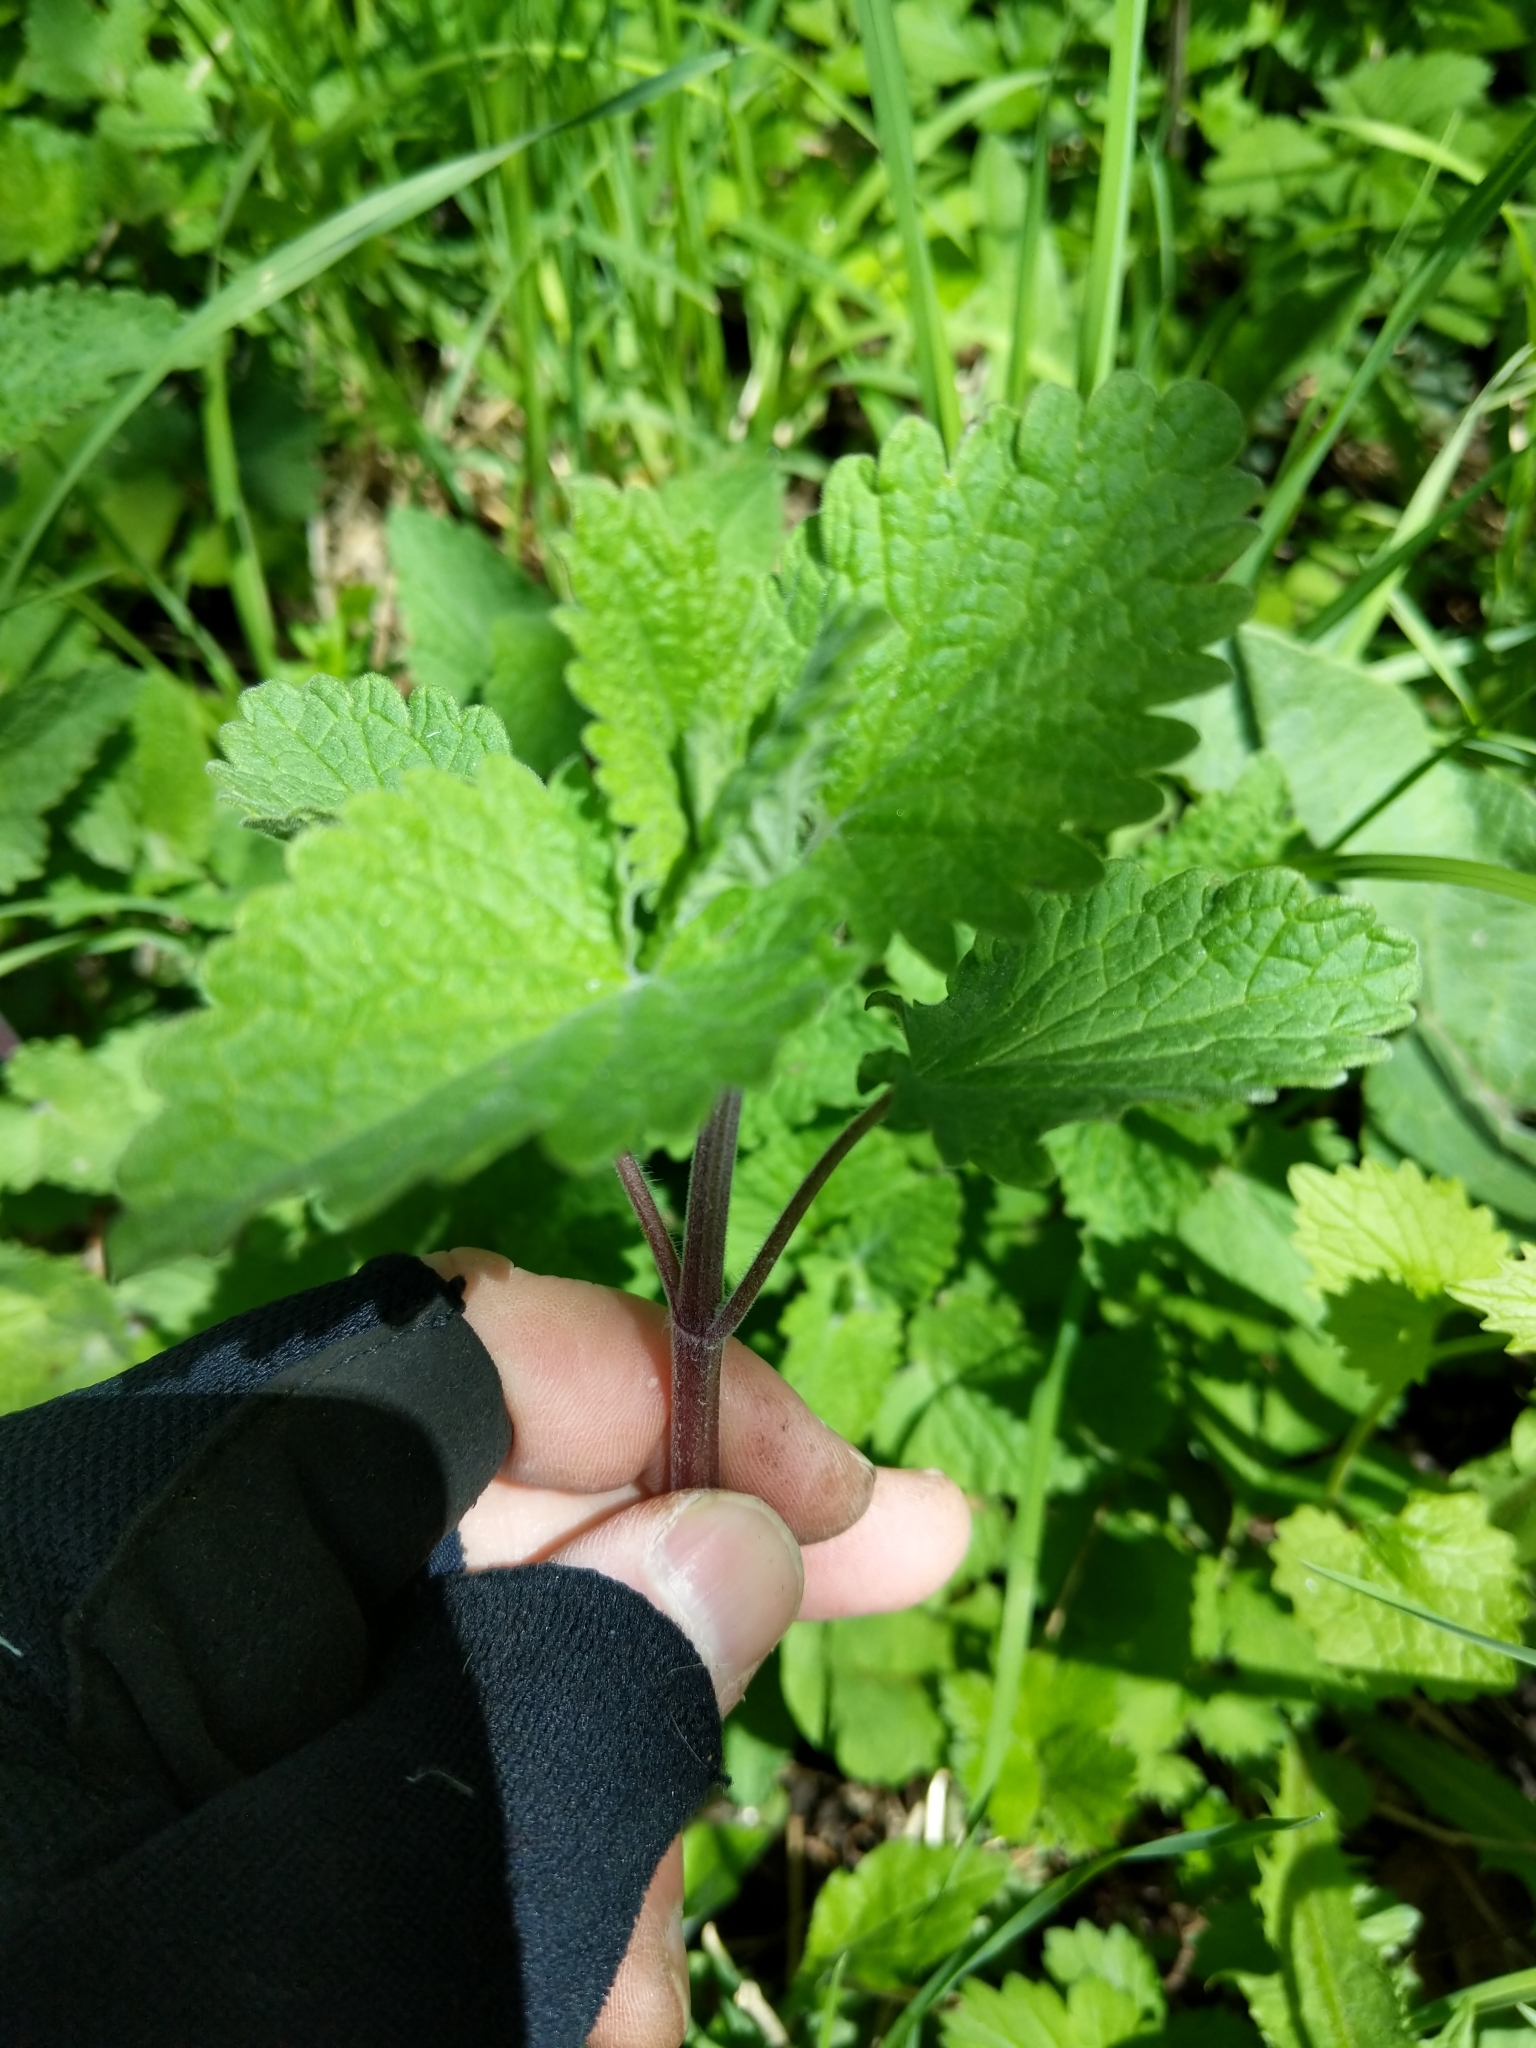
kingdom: Plantae
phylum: Tracheophyta
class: Magnoliopsida
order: Lamiales
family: Lamiaceae
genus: Nepeta
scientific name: Nepeta cataria
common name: Catnip
